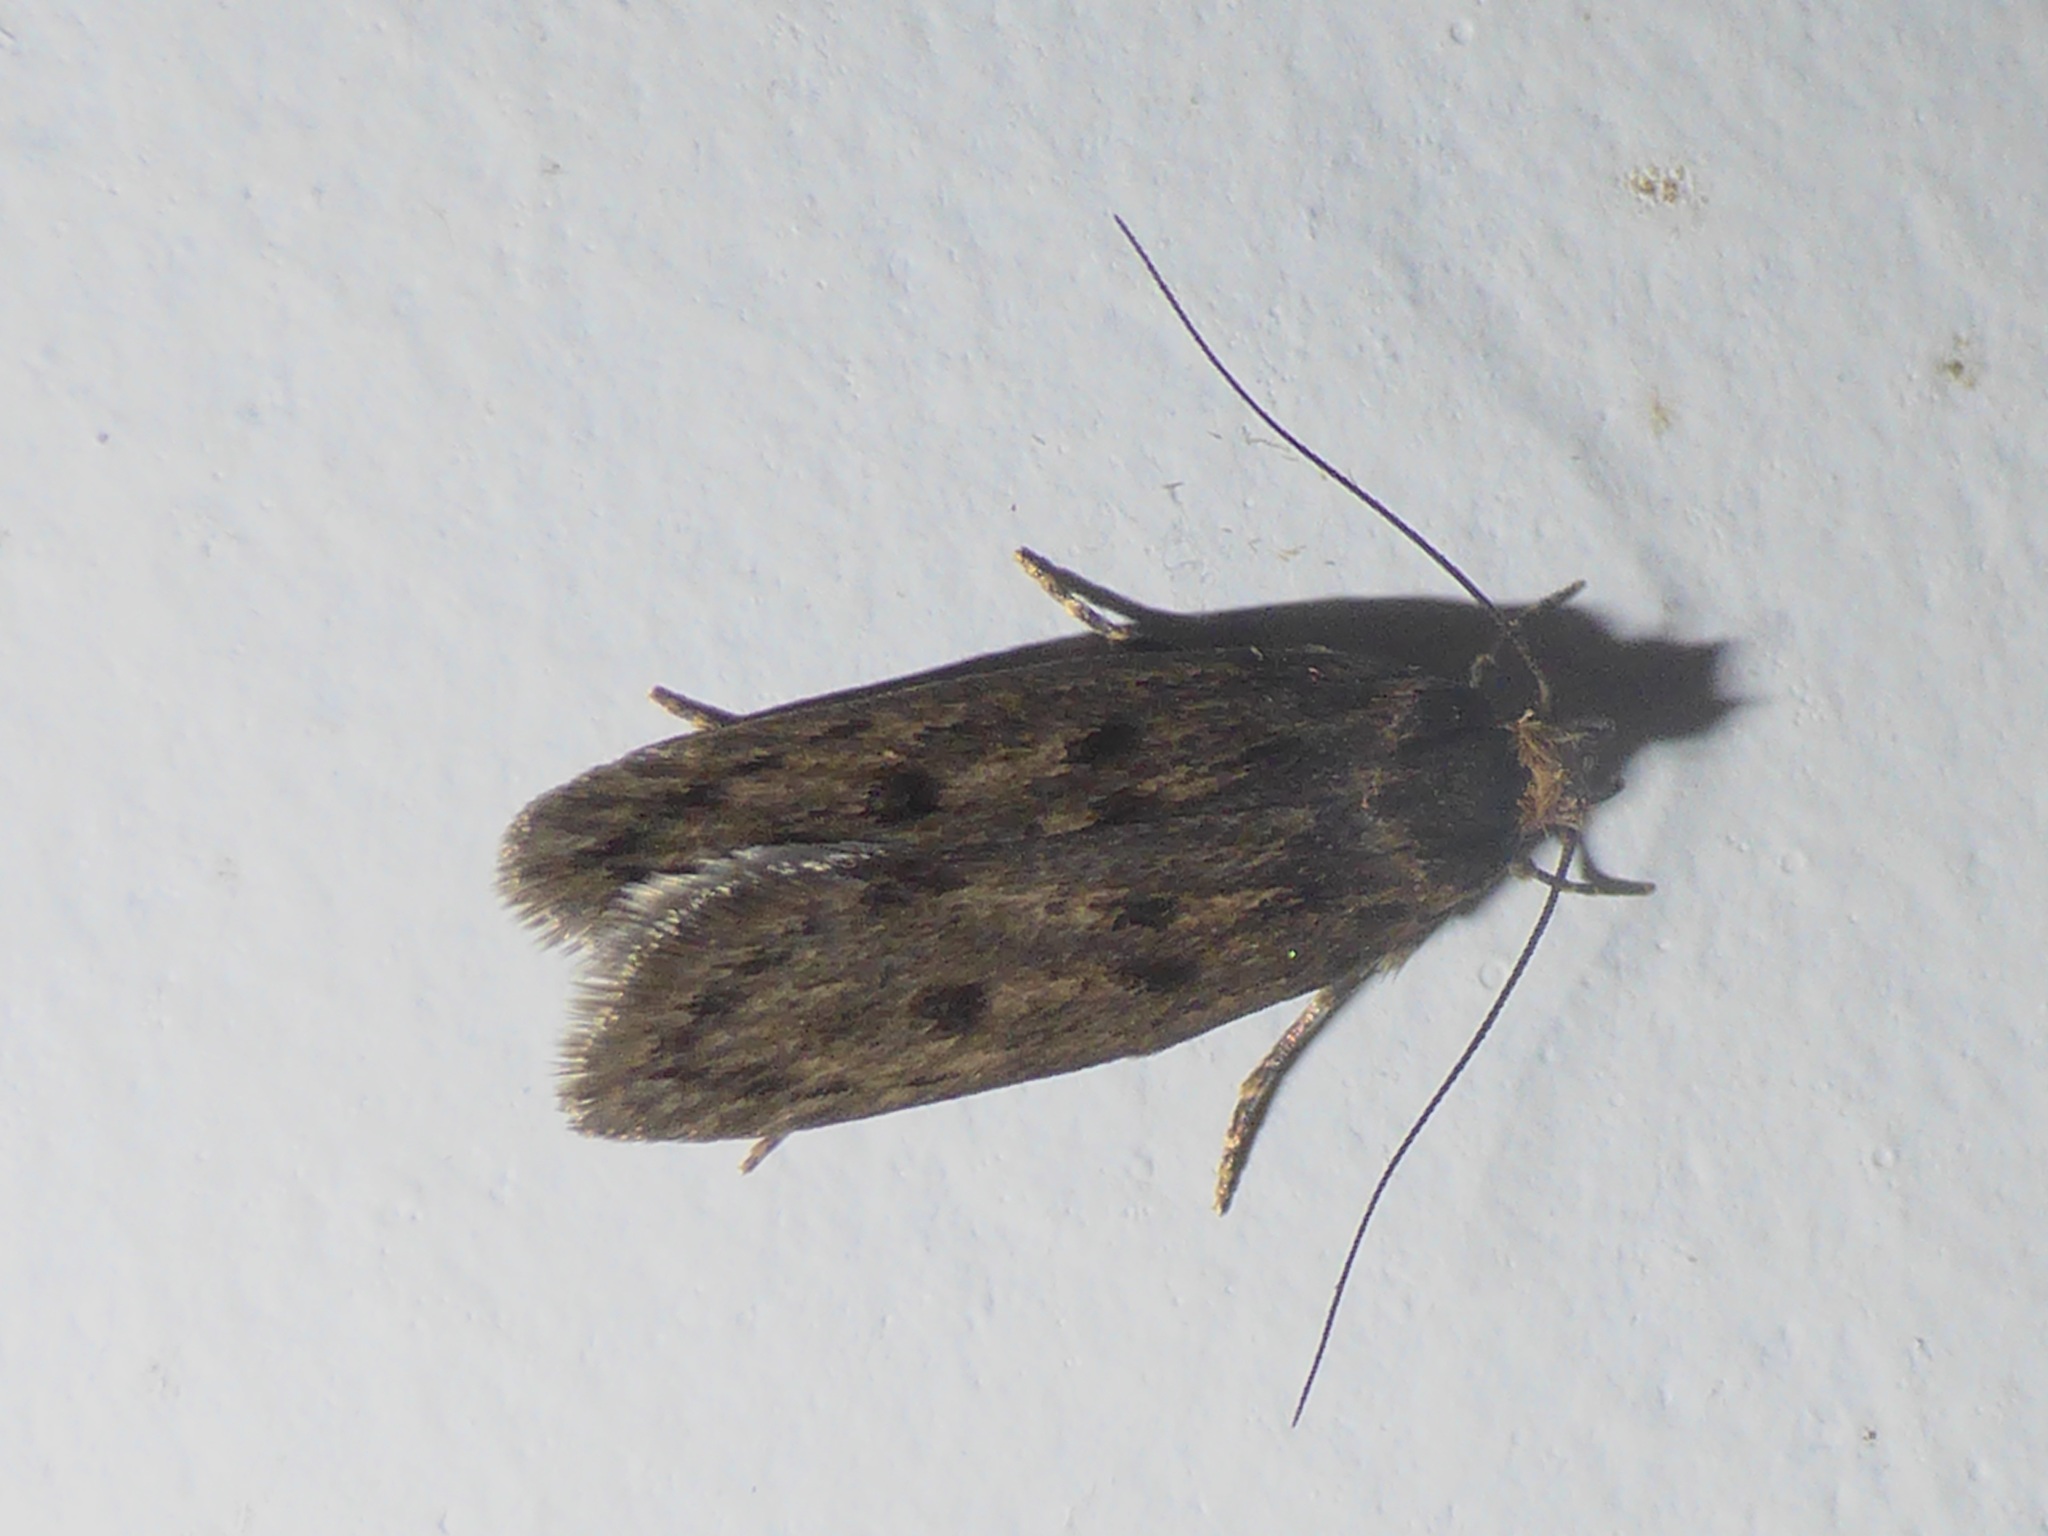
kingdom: Animalia
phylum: Arthropoda
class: Insecta
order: Lepidoptera
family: Oecophoridae
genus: Hofmannophila
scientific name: Hofmannophila pseudospretella
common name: Brown house moth
